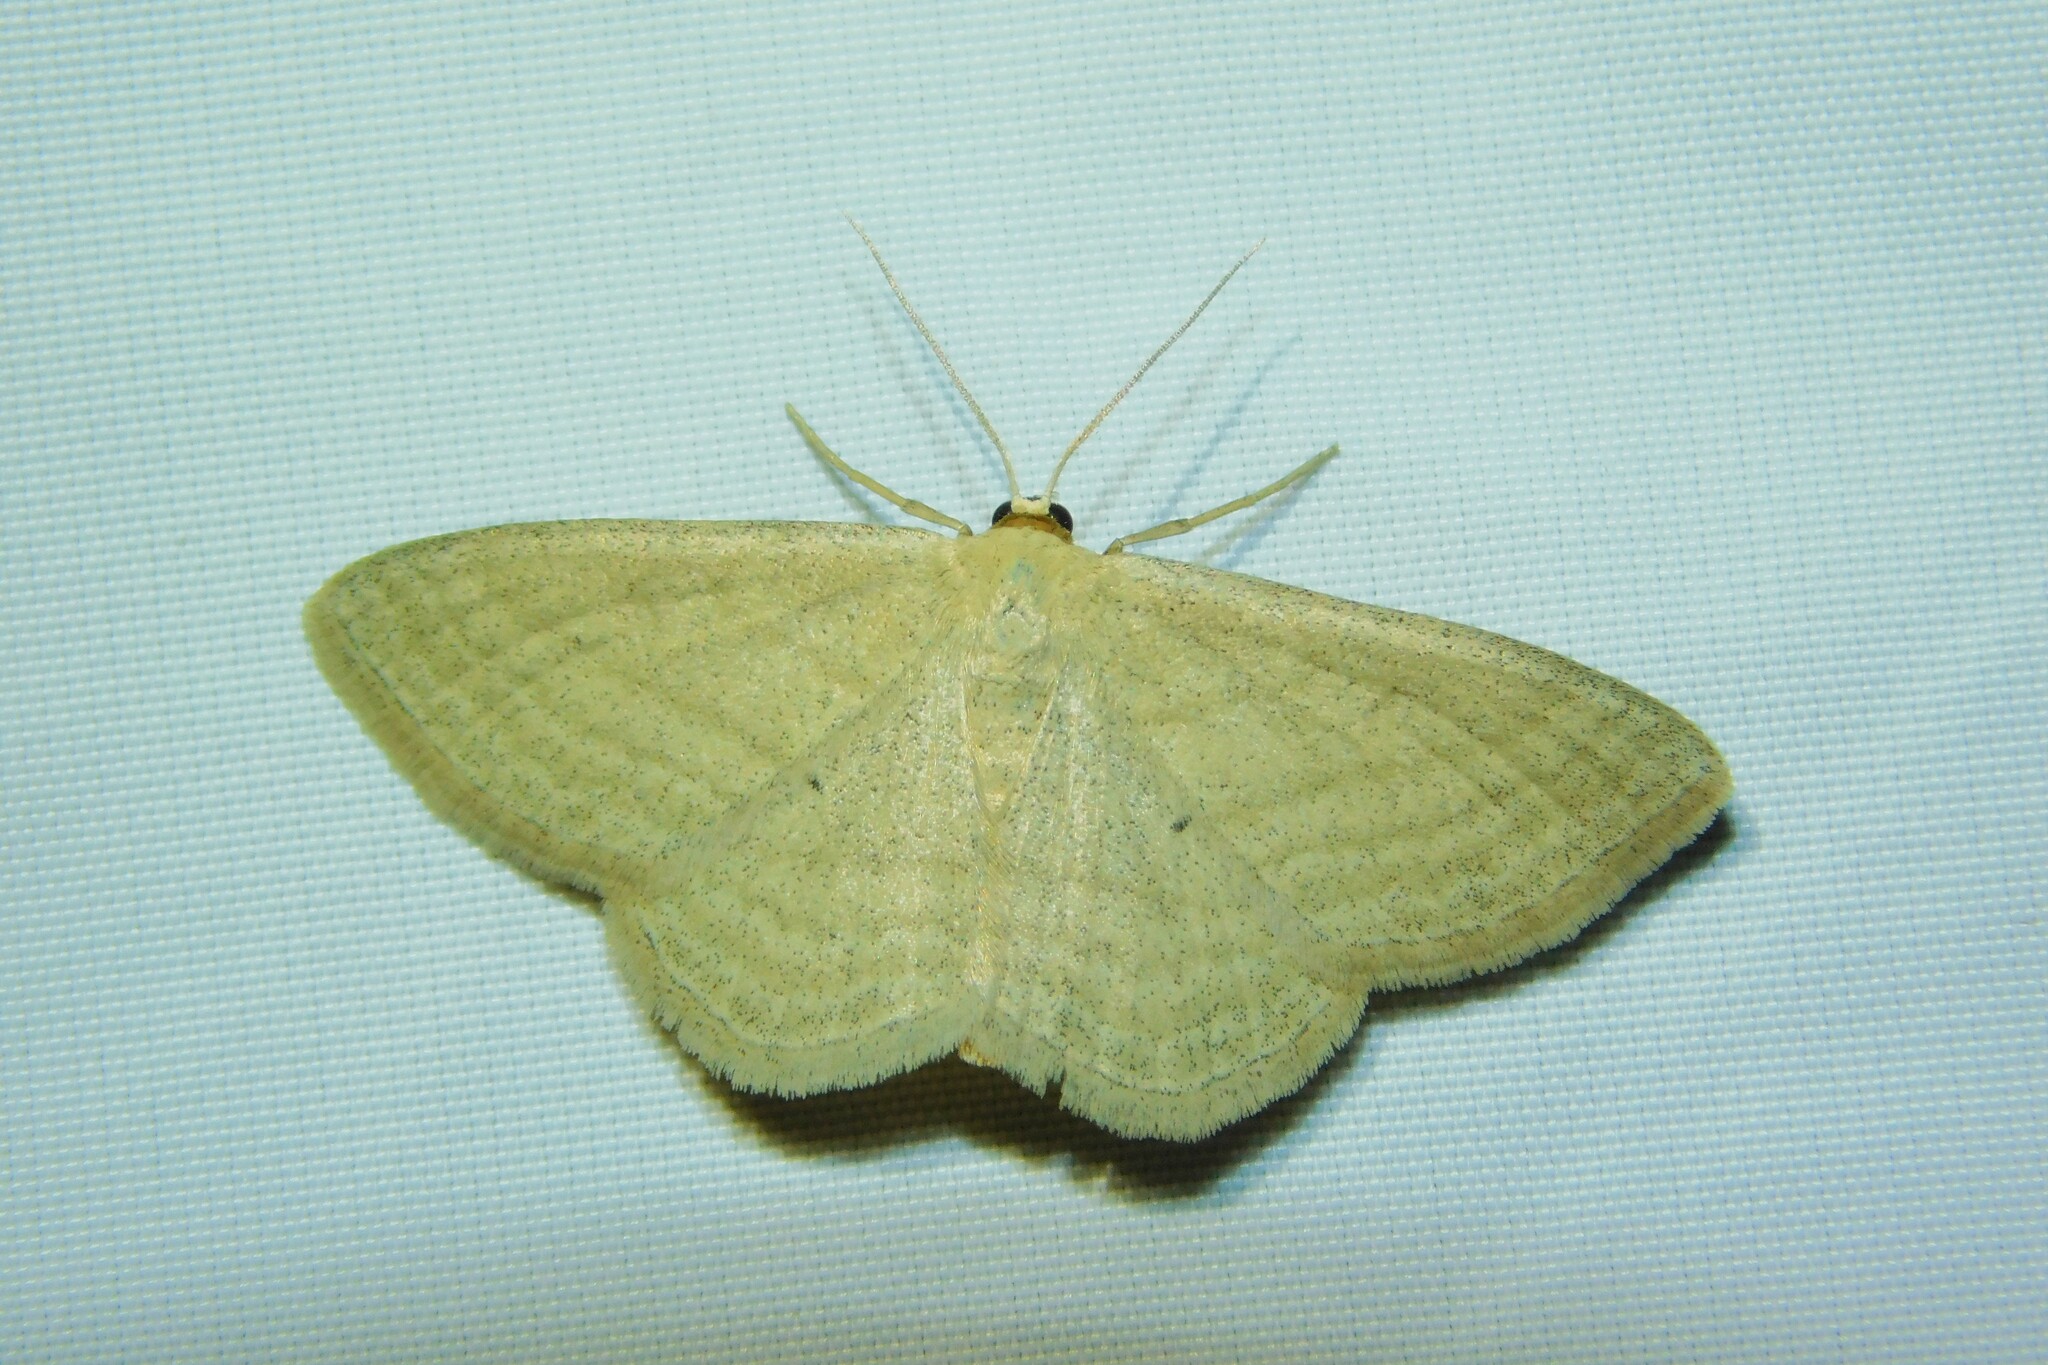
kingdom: Animalia
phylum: Arthropoda
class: Insecta
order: Lepidoptera
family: Geometridae
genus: Scopula
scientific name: Scopula virgulata
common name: Streaked wave
